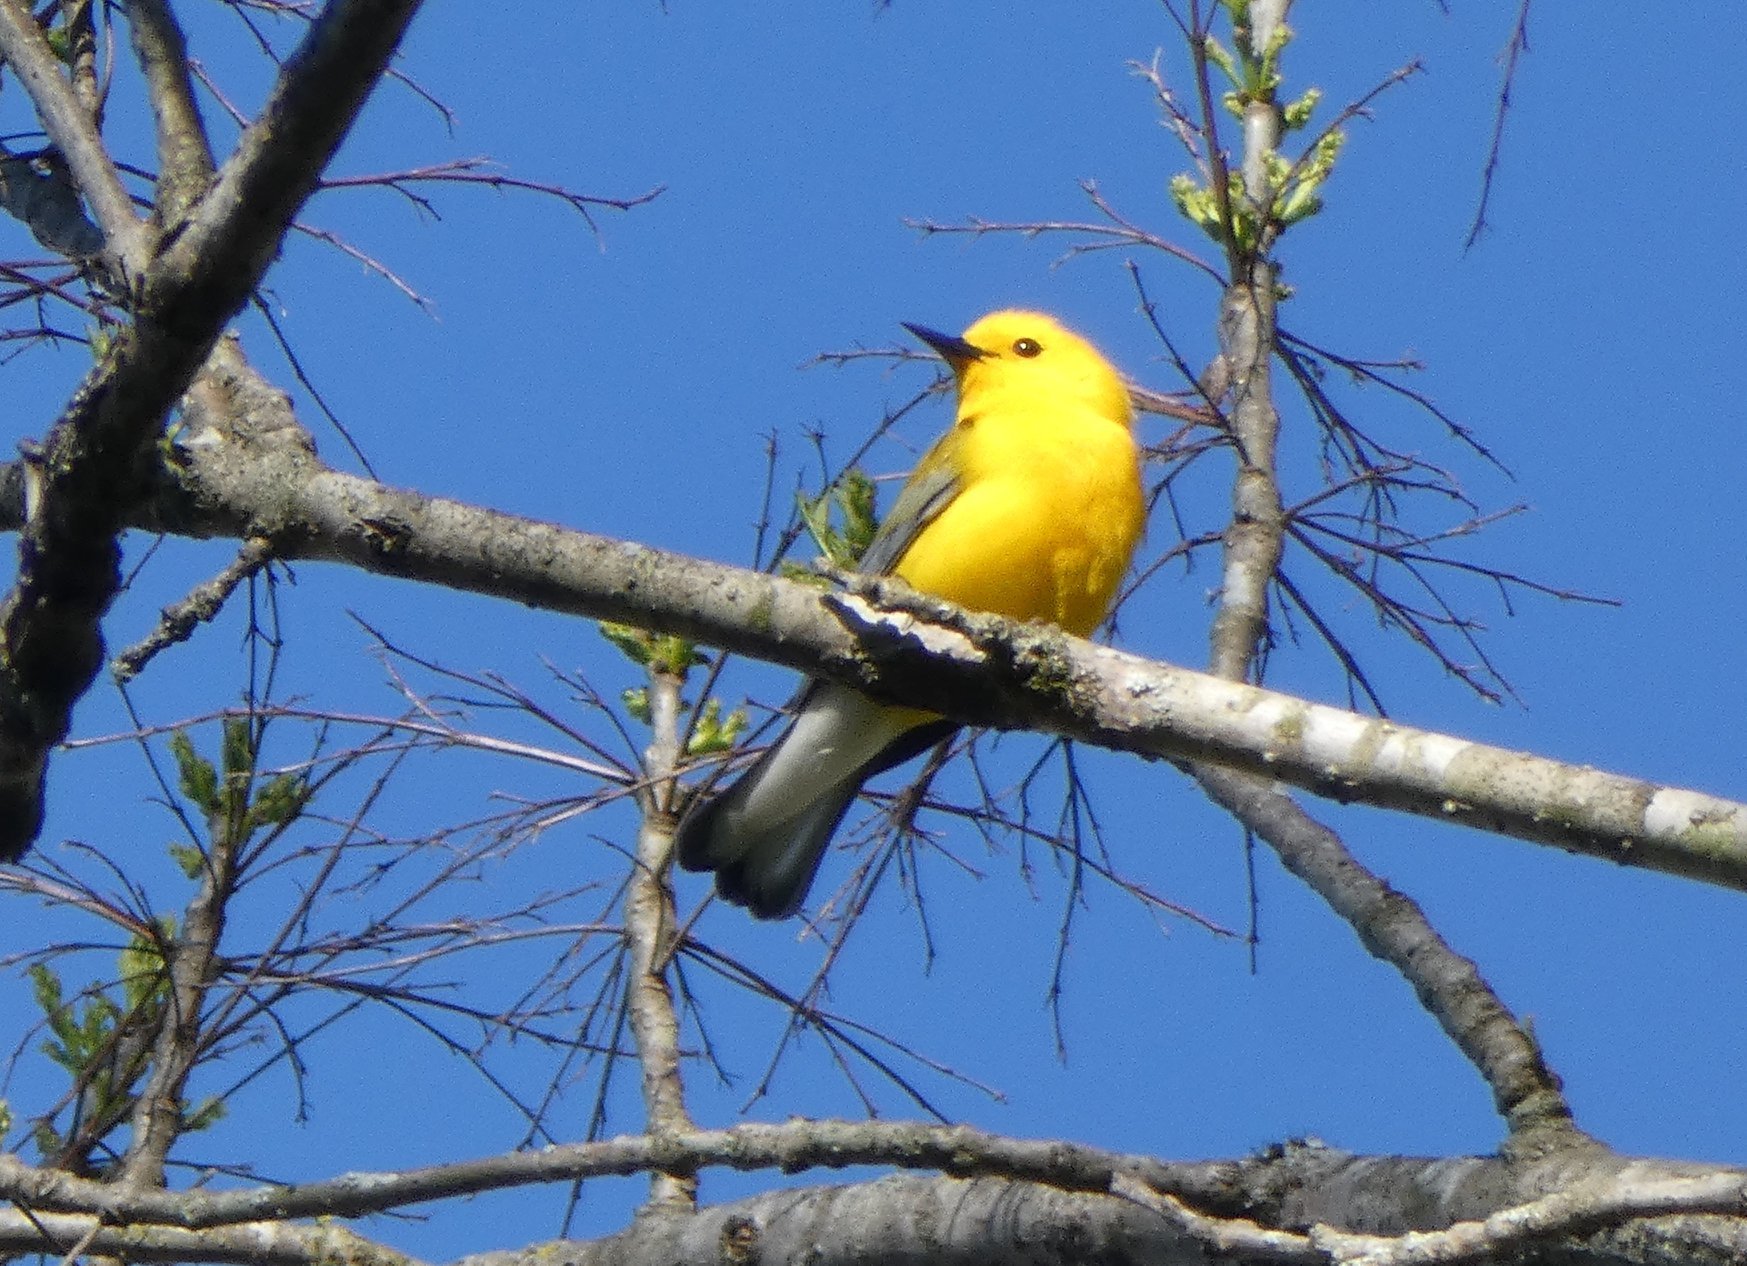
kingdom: Animalia
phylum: Chordata
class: Aves
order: Passeriformes
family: Parulidae
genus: Protonotaria
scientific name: Protonotaria citrea
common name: Prothonotary warbler
